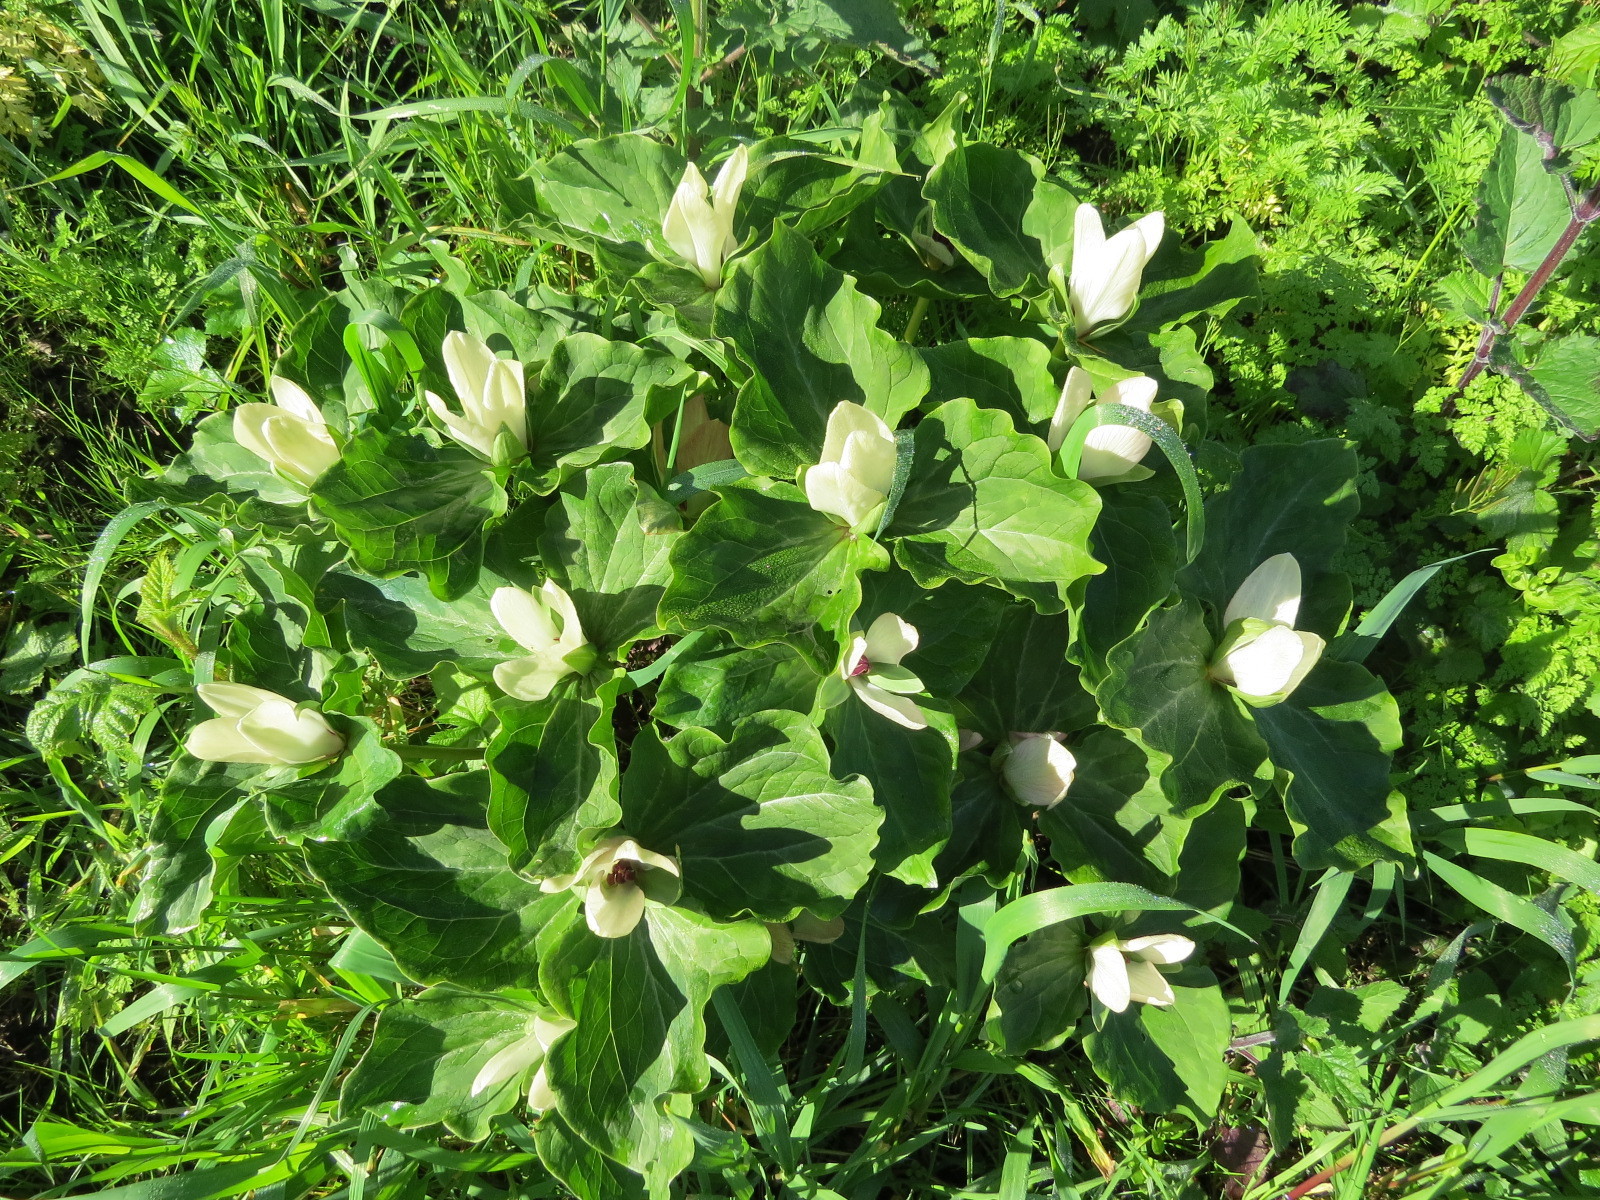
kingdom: Plantae
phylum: Tracheophyta
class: Liliopsida
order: Liliales
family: Melanthiaceae
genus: Trillium
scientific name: Trillium chloropetalum
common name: Giant trillium
